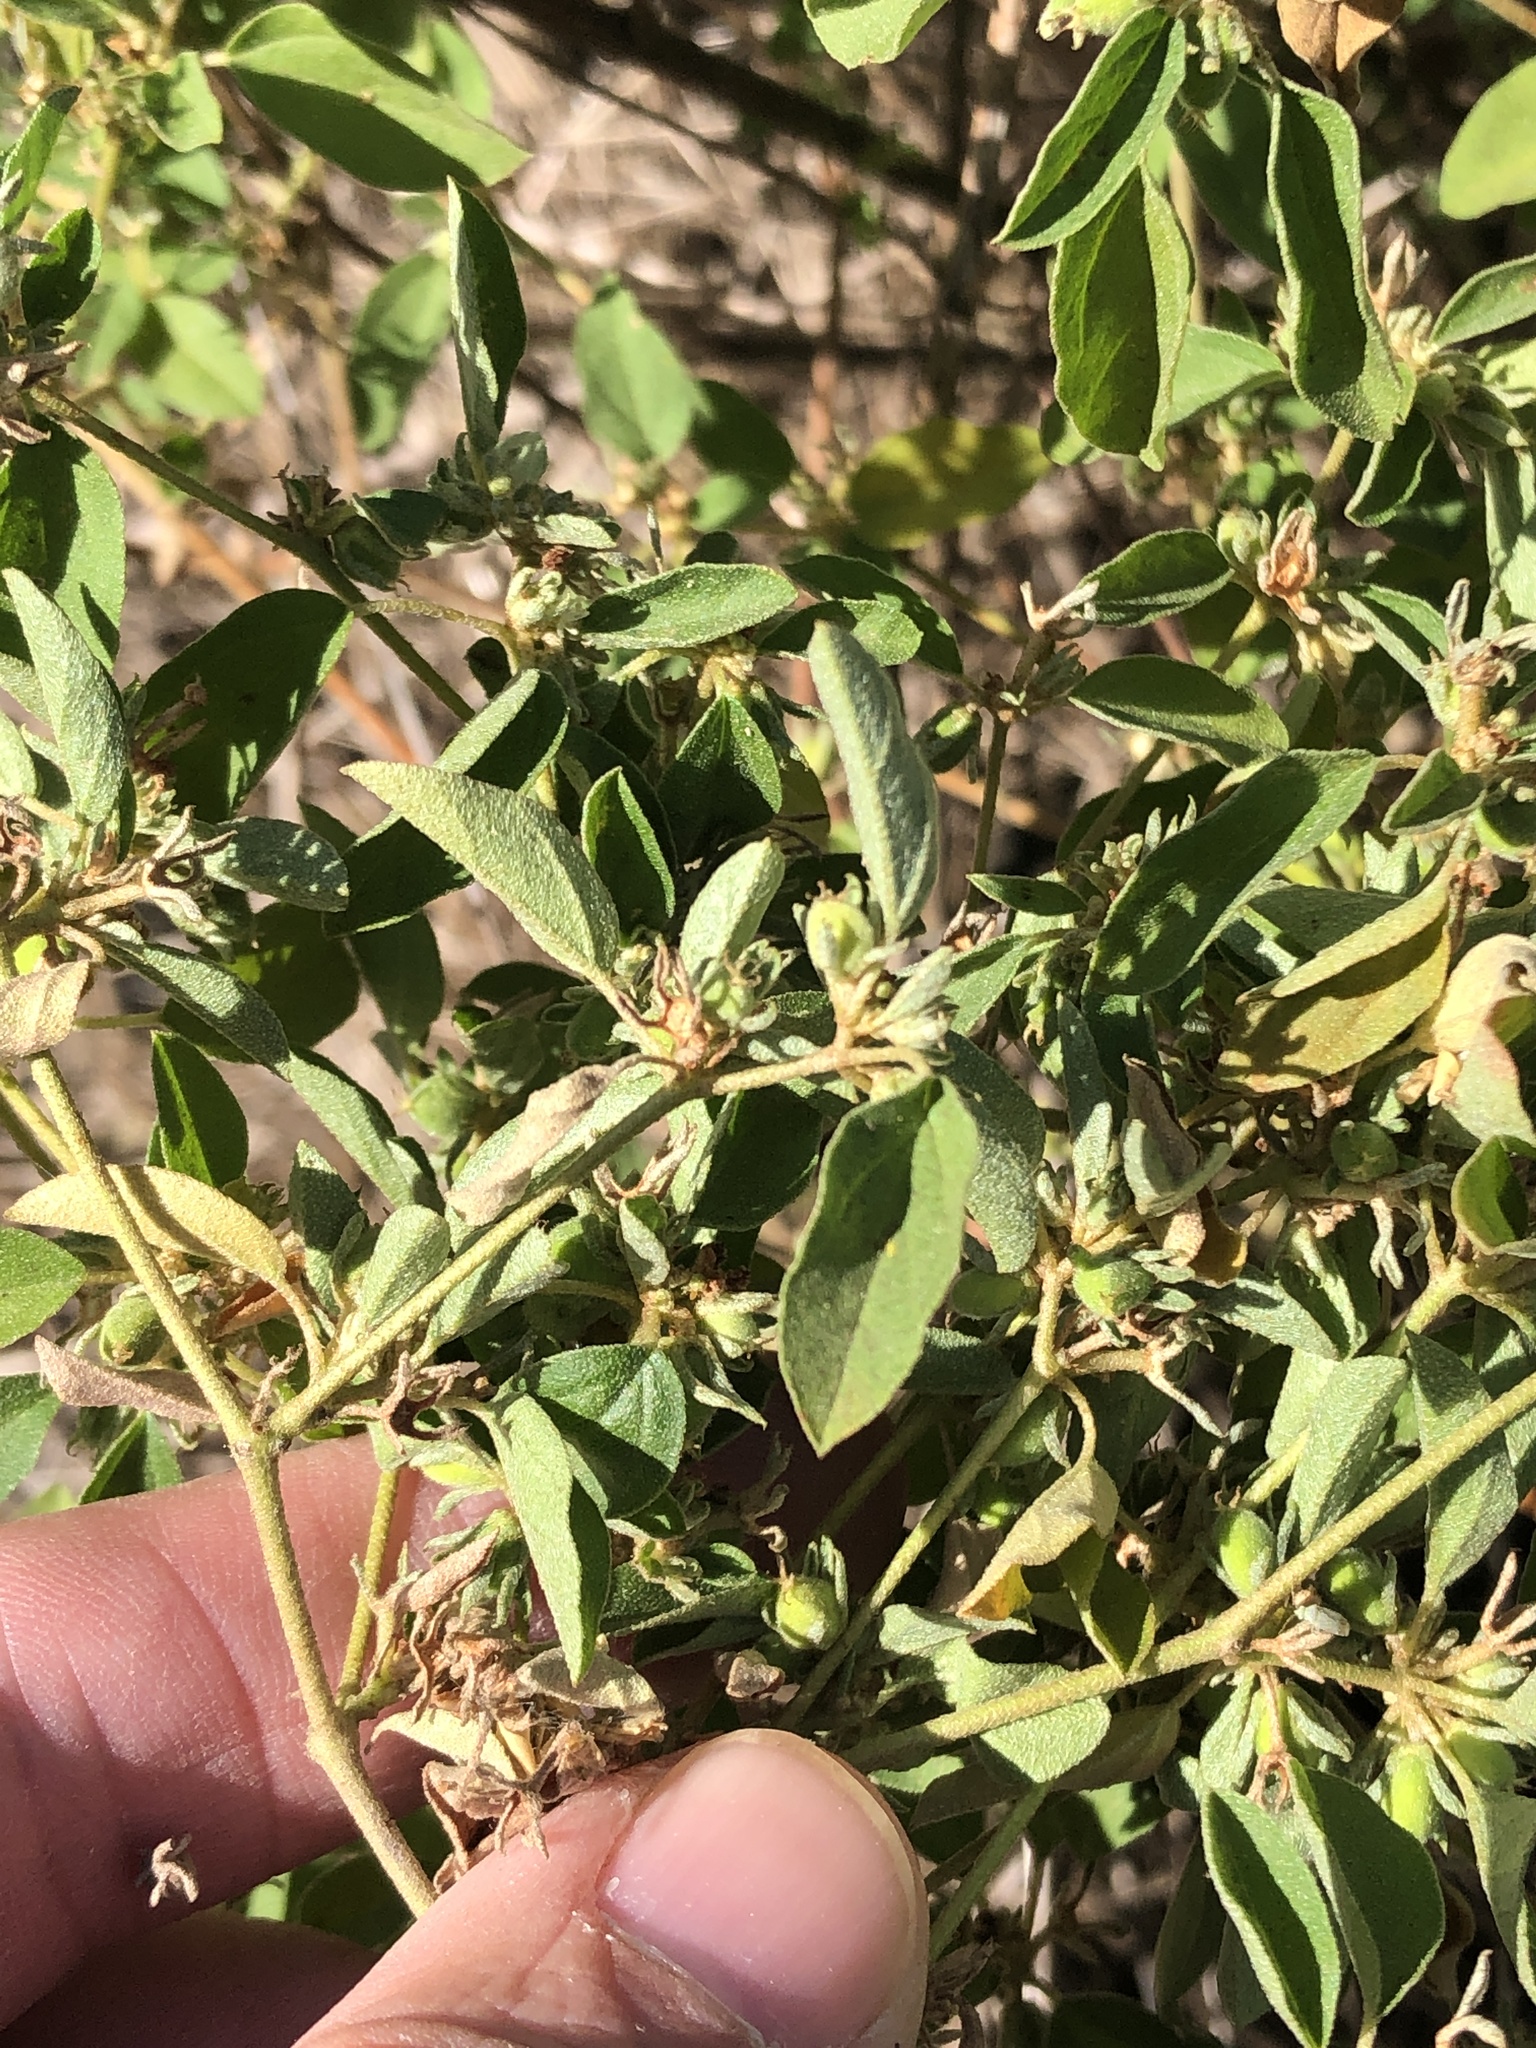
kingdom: Plantae
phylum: Tracheophyta
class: Magnoliopsida
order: Malpighiales
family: Euphorbiaceae
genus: Croton
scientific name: Croton monanthogynus
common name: One-seed croton
